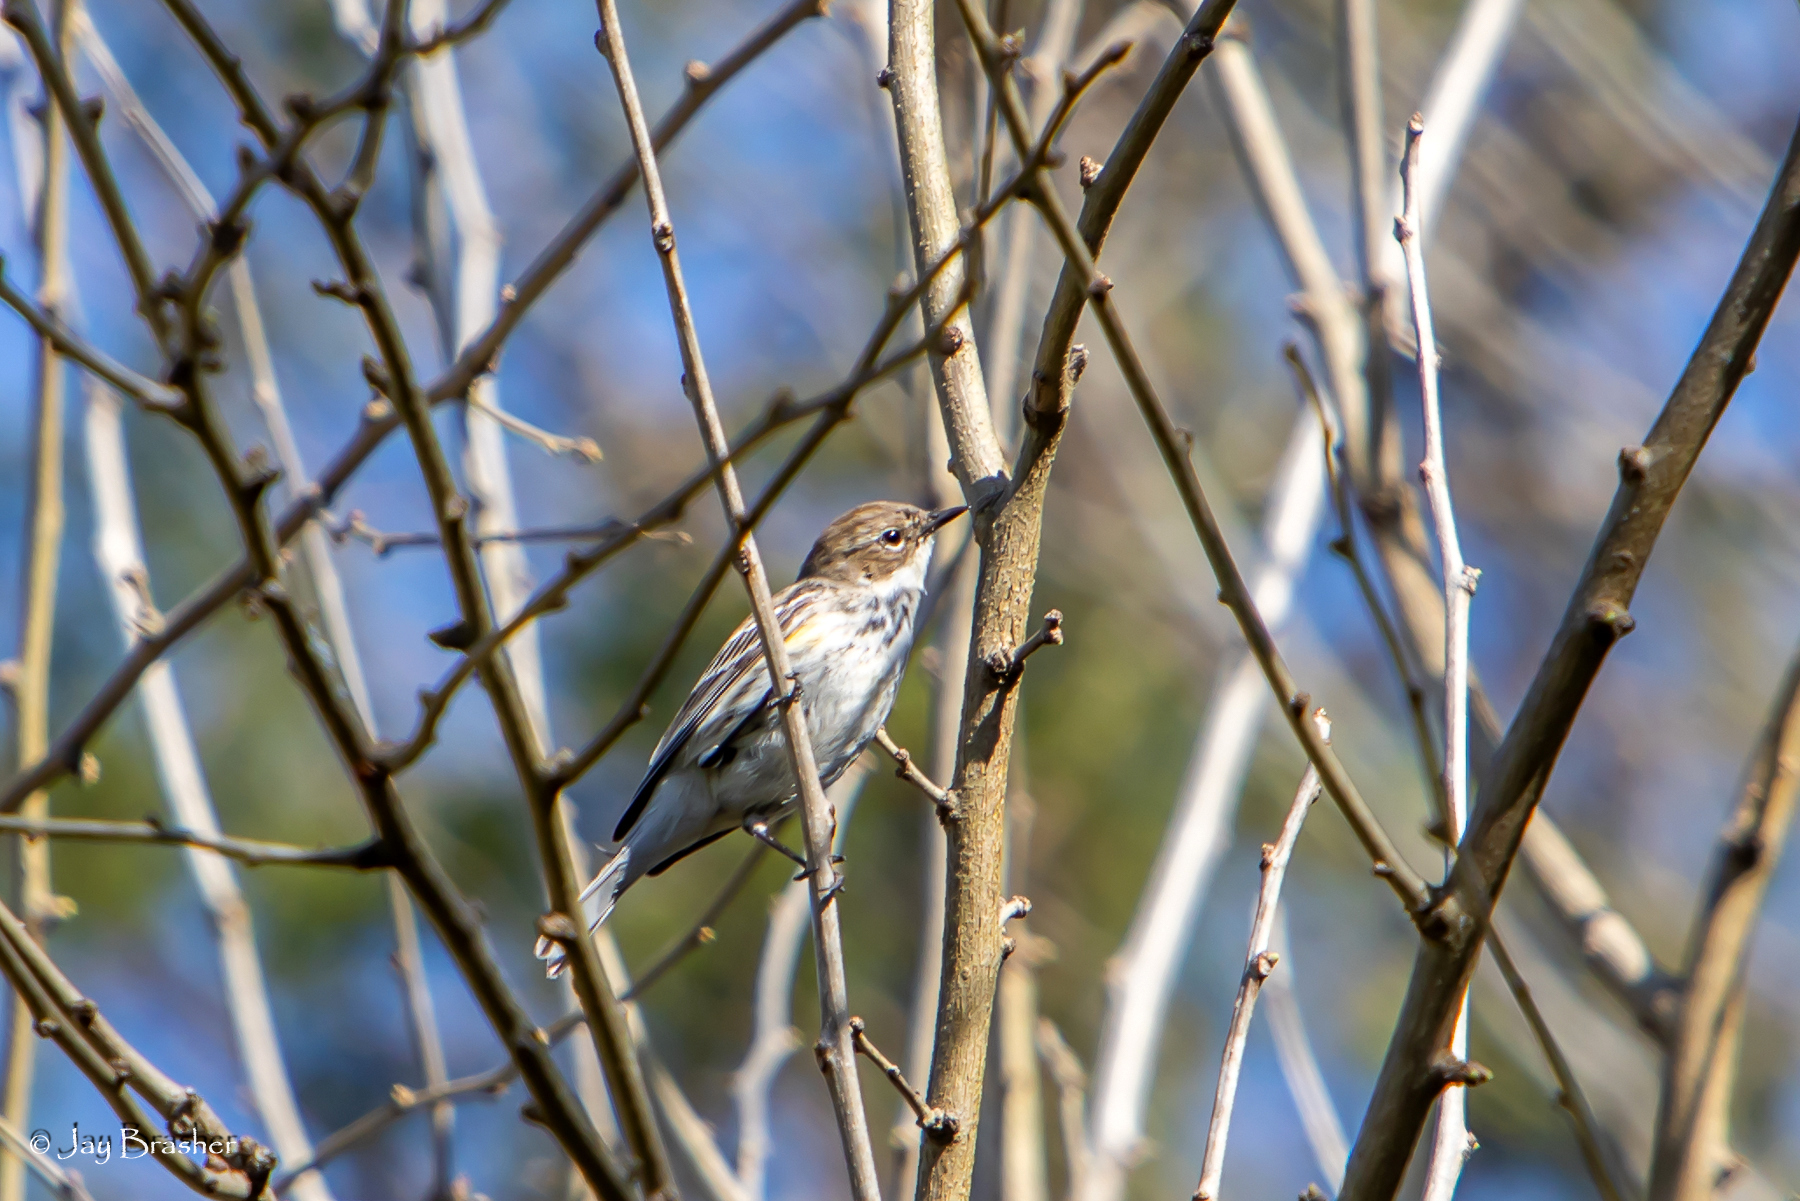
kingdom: Animalia
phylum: Chordata
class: Aves
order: Passeriformes
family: Parulidae
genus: Setophaga
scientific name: Setophaga coronata
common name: Myrtle warbler
